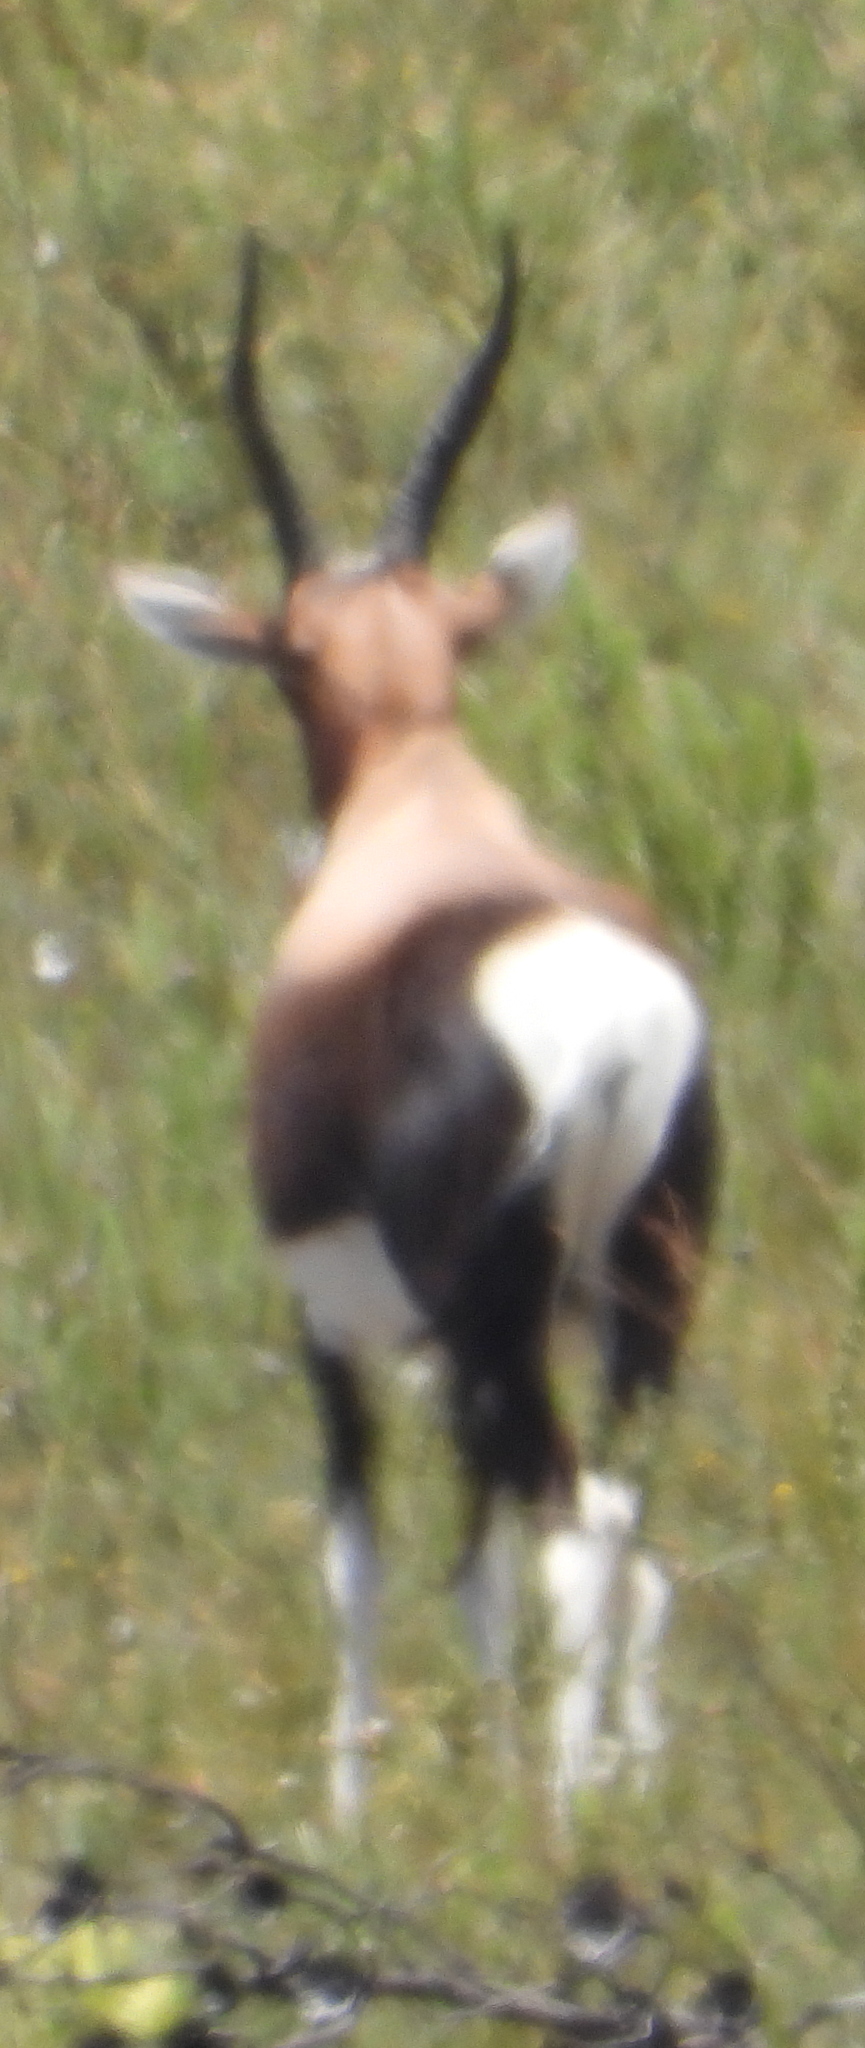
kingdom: Animalia
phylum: Chordata
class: Mammalia
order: Artiodactyla
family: Bovidae
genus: Damaliscus
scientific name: Damaliscus pygargus
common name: Bontebok
